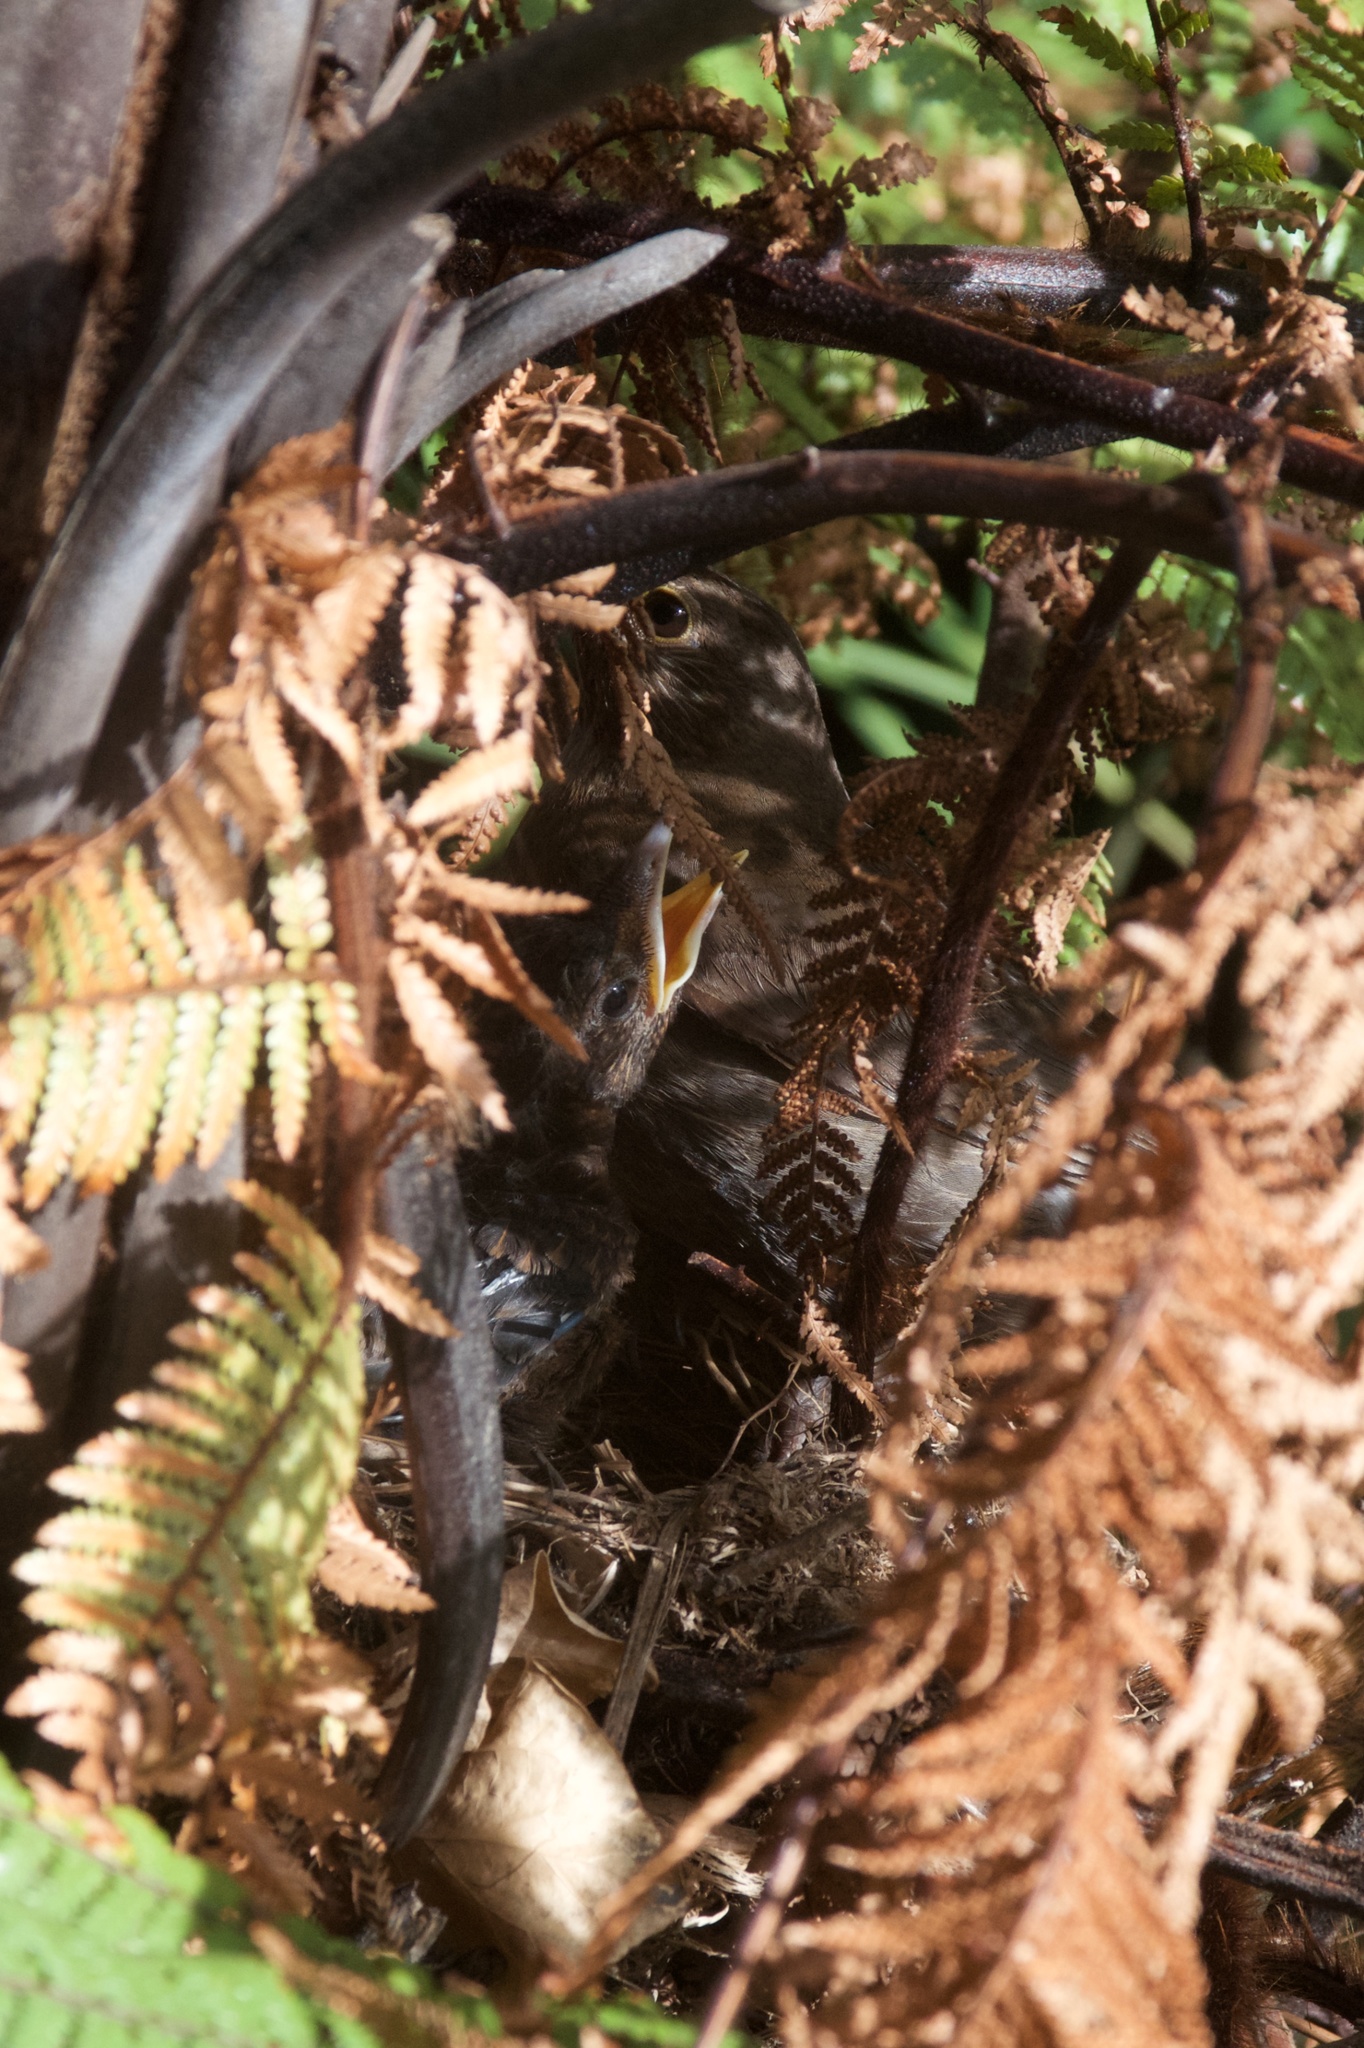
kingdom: Animalia
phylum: Chordata
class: Aves
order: Passeriformes
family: Turdidae
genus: Turdus
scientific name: Turdus merula
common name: Common blackbird
